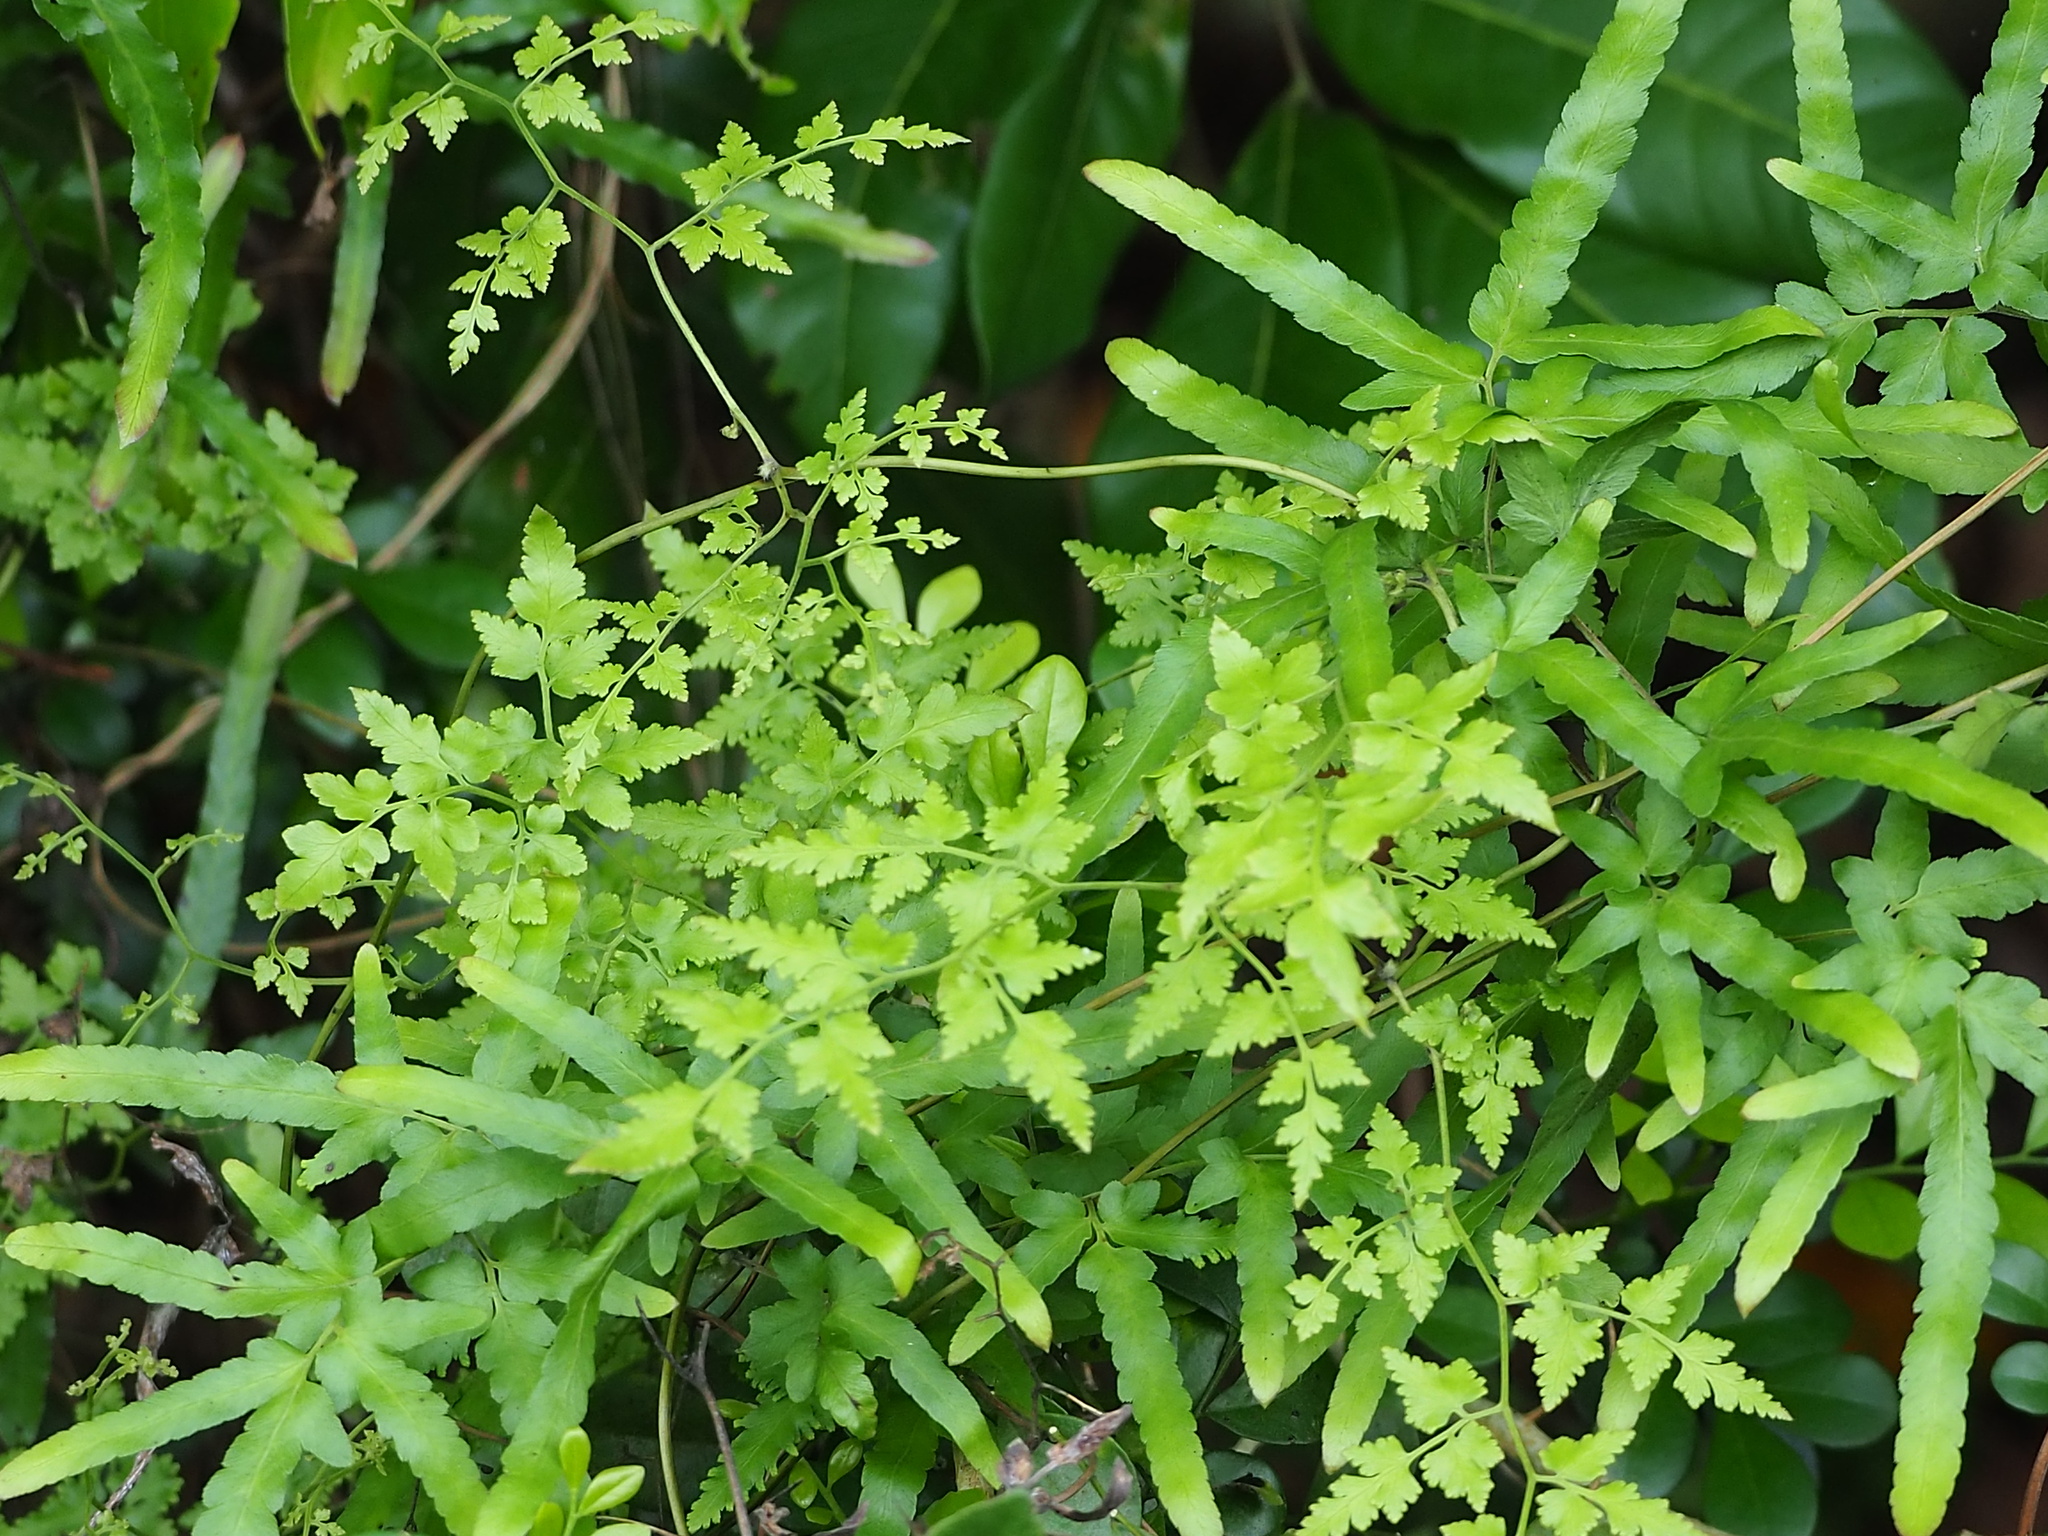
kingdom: Plantae
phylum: Tracheophyta
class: Polypodiopsida
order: Schizaeales
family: Lygodiaceae
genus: Lygodium
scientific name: Lygodium japonicum
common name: Japanese climbing fern
